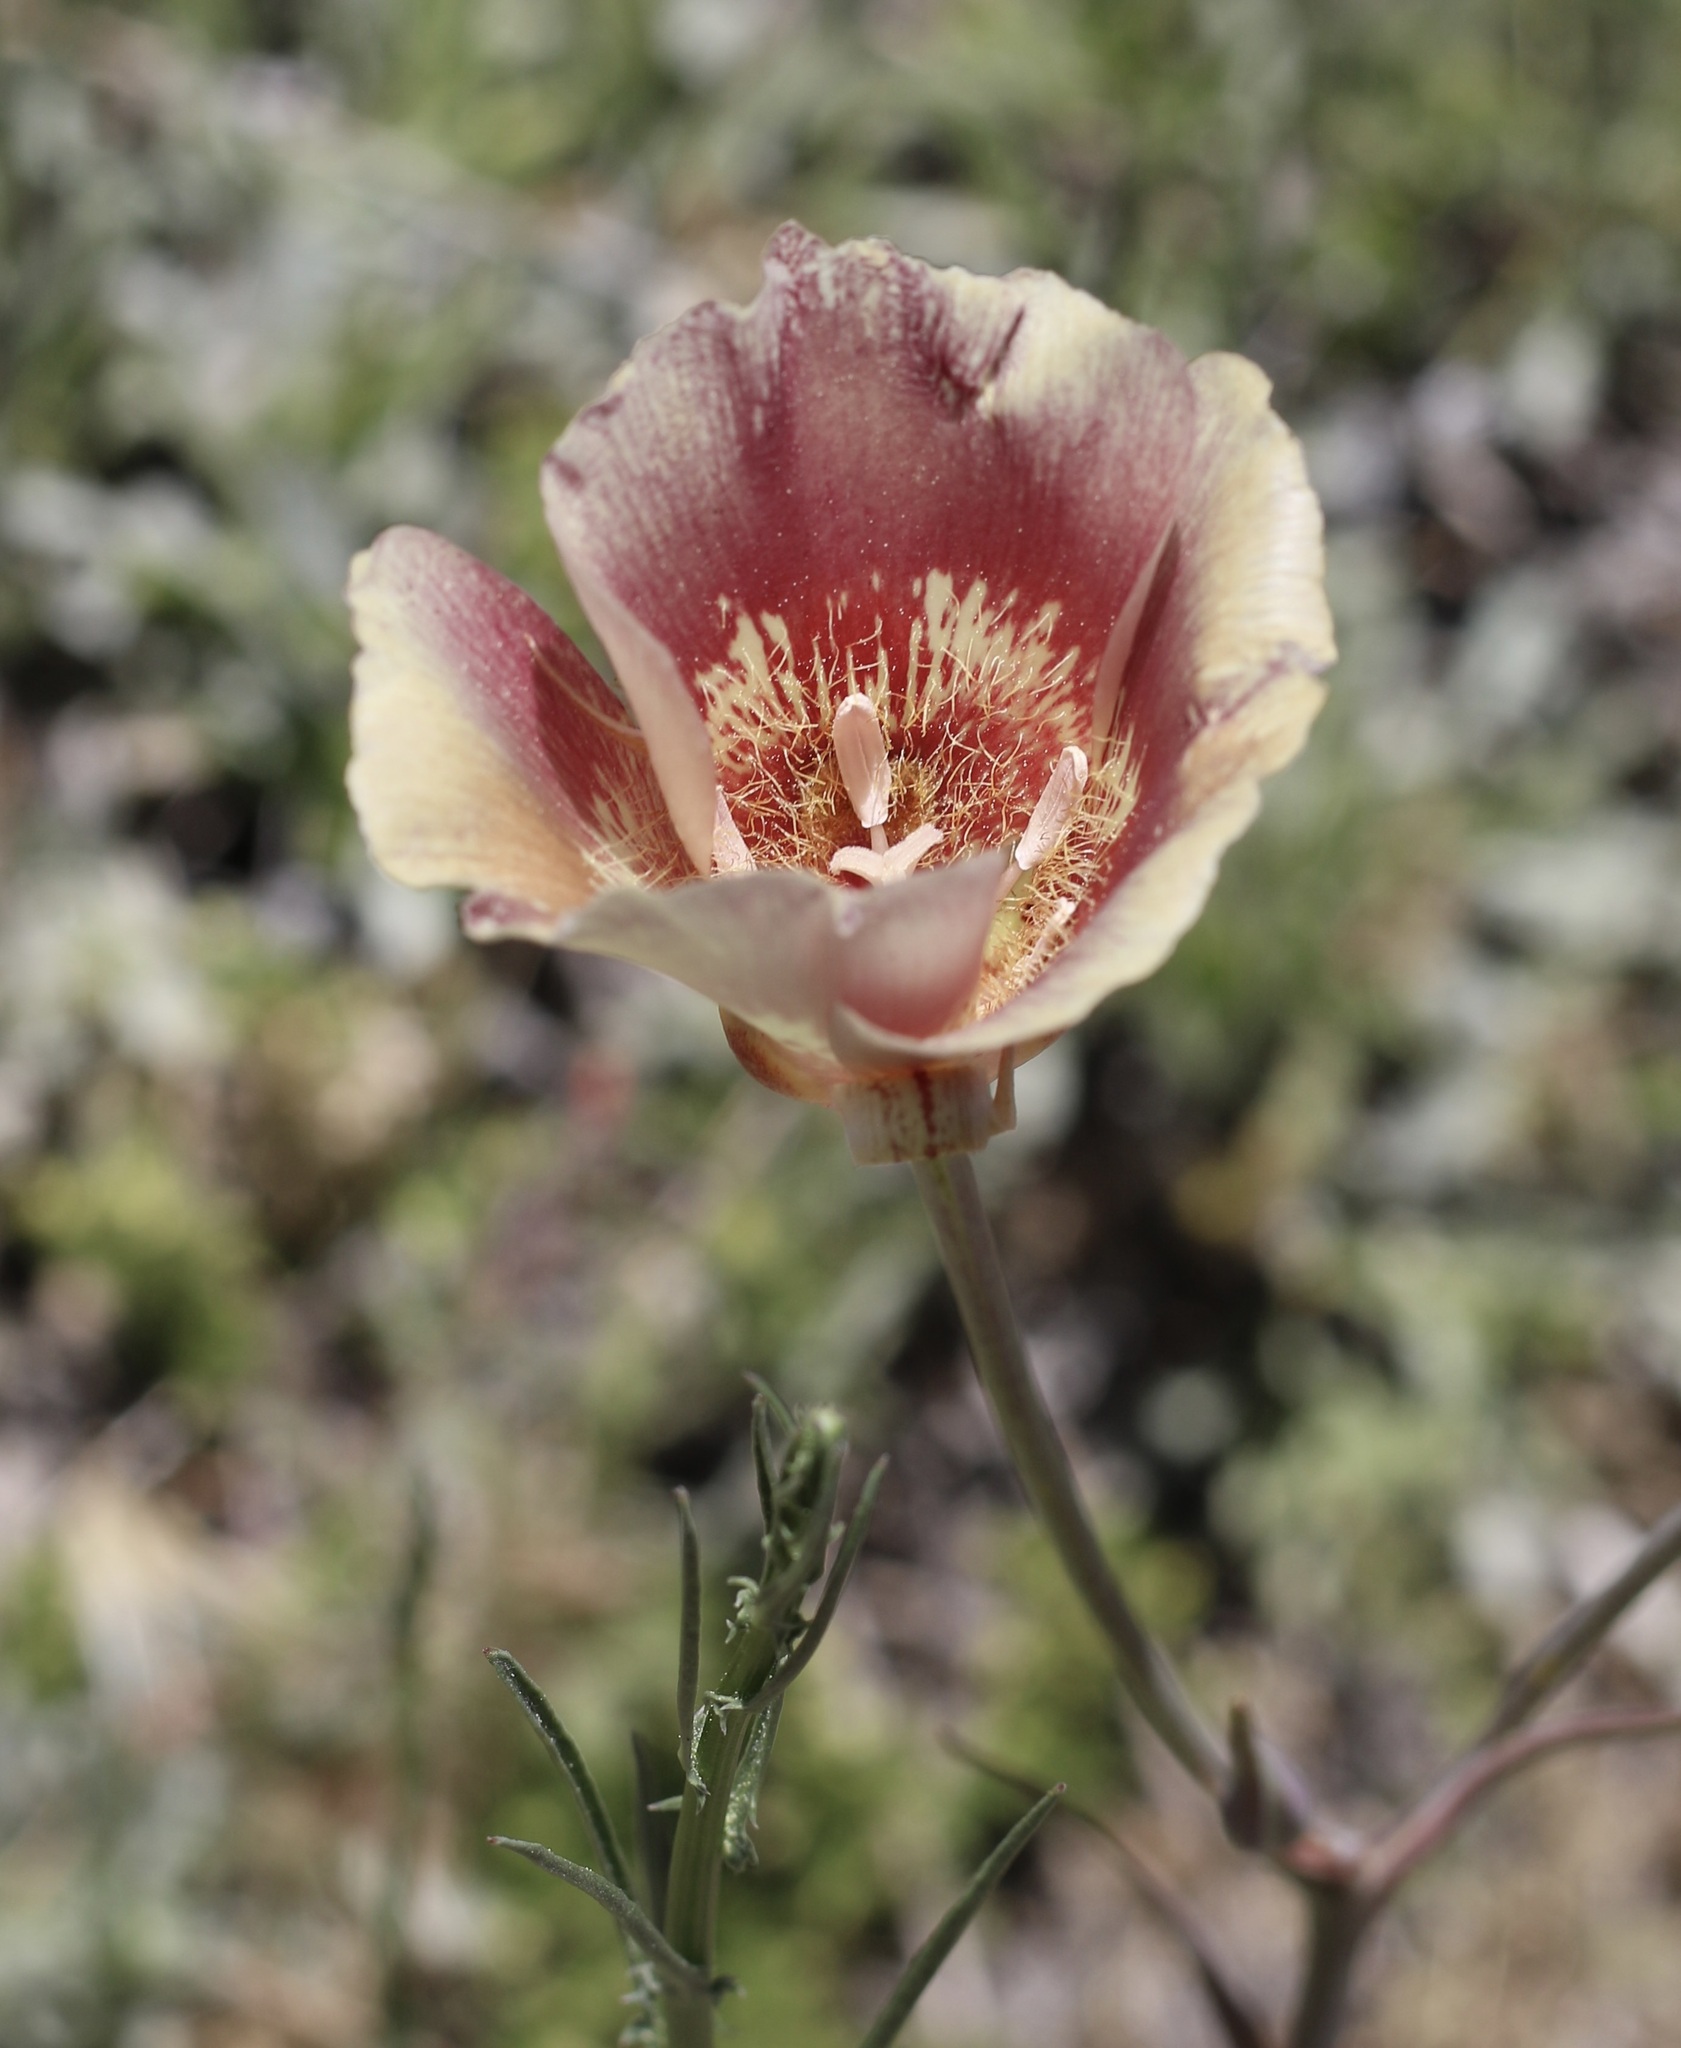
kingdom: Plantae
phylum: Tracheophyta
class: Liliopsida
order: Liliales
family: Liliaceae
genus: Calochortus
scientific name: Calochortus venustus
